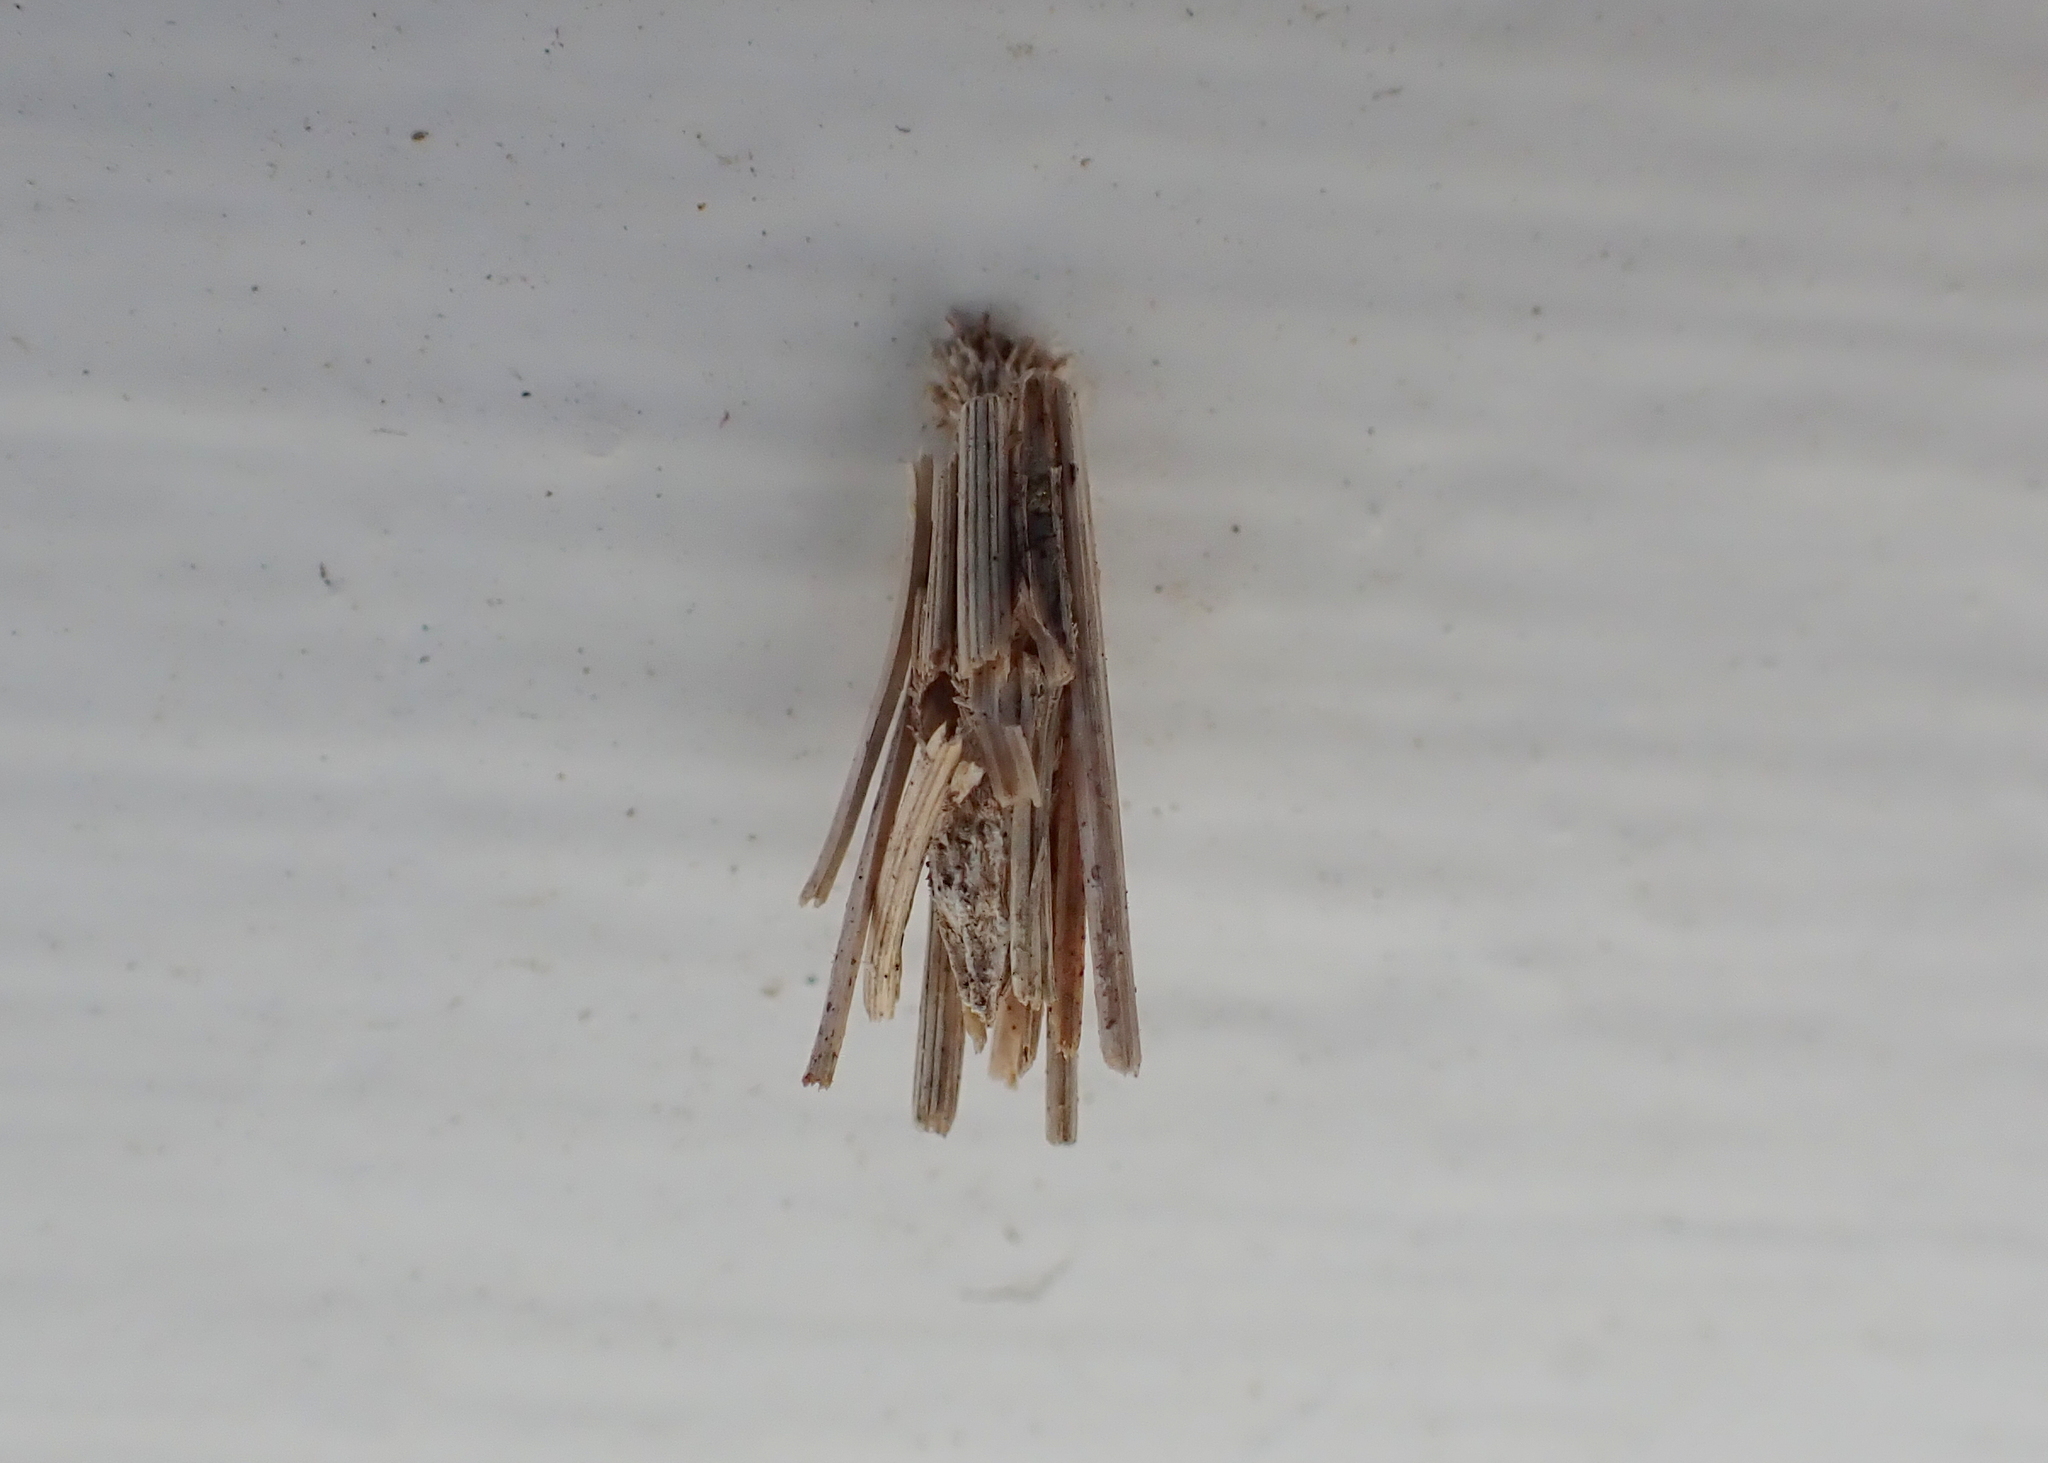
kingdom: Animalia
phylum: Arthropoda
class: Insecta
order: Lepidoptera
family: Psychidae
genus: Psyche
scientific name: Psyche casta
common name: Common sweep
